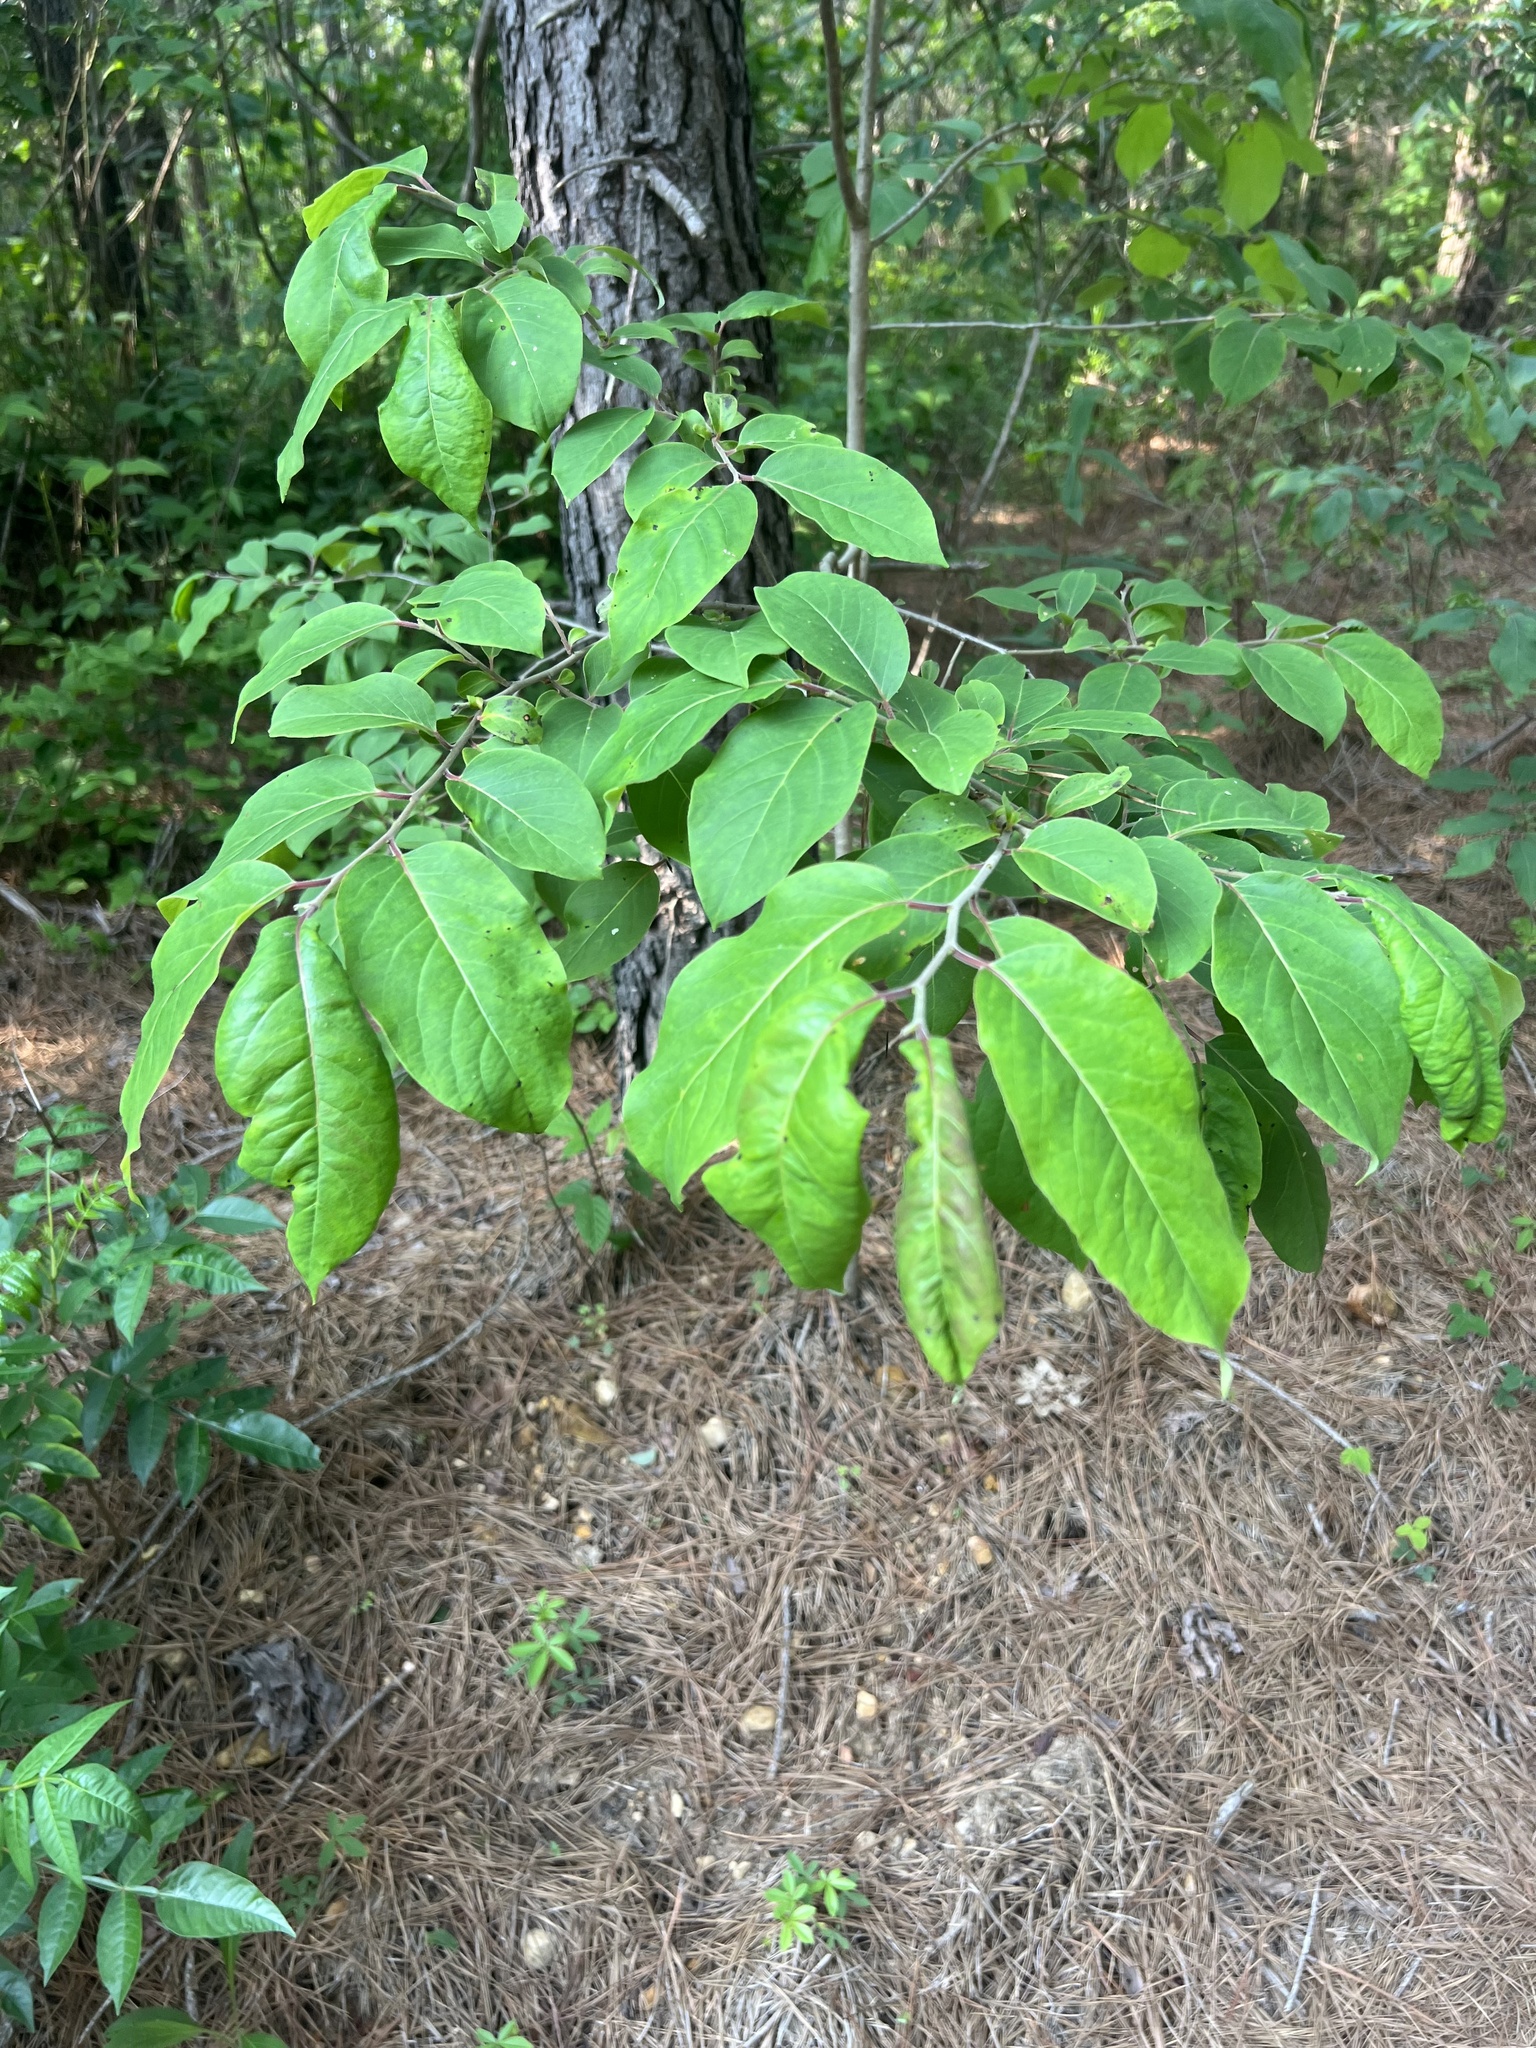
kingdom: Plantae
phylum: Tracheophyta
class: Magnoliopsida
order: Ericales
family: Ebenaceae
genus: Diospyros
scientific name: Diospyros virginiana
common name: Persimmon
